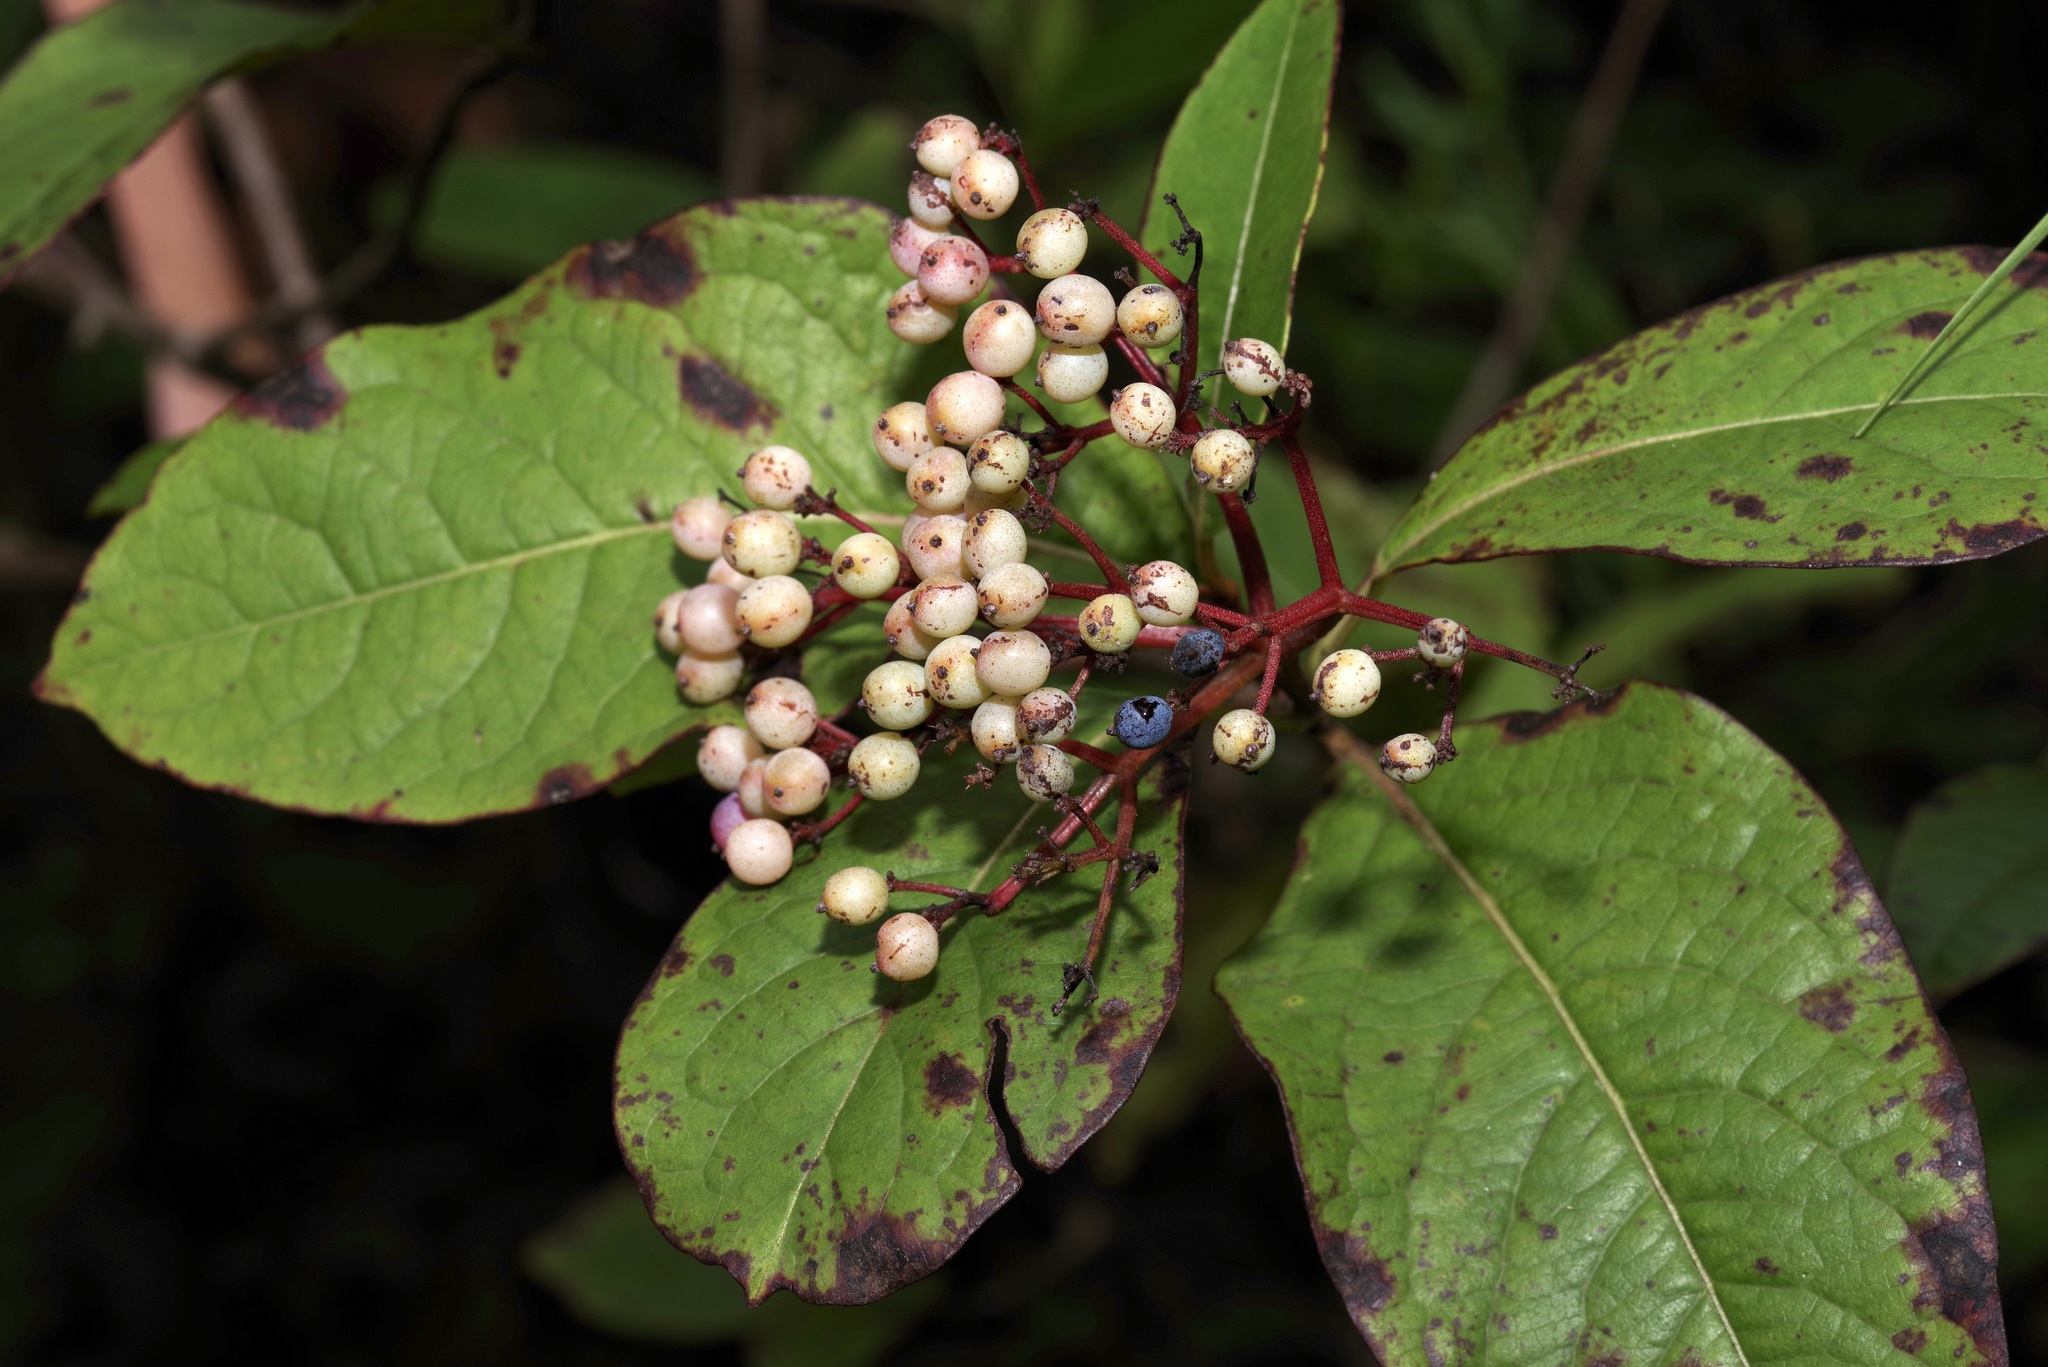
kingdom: Plantae
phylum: Tracheophyta
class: Magnoliopsida
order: Dipsacales
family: Viburnaceae
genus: Viburnum
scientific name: Viburnum nudum
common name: Possum haw
